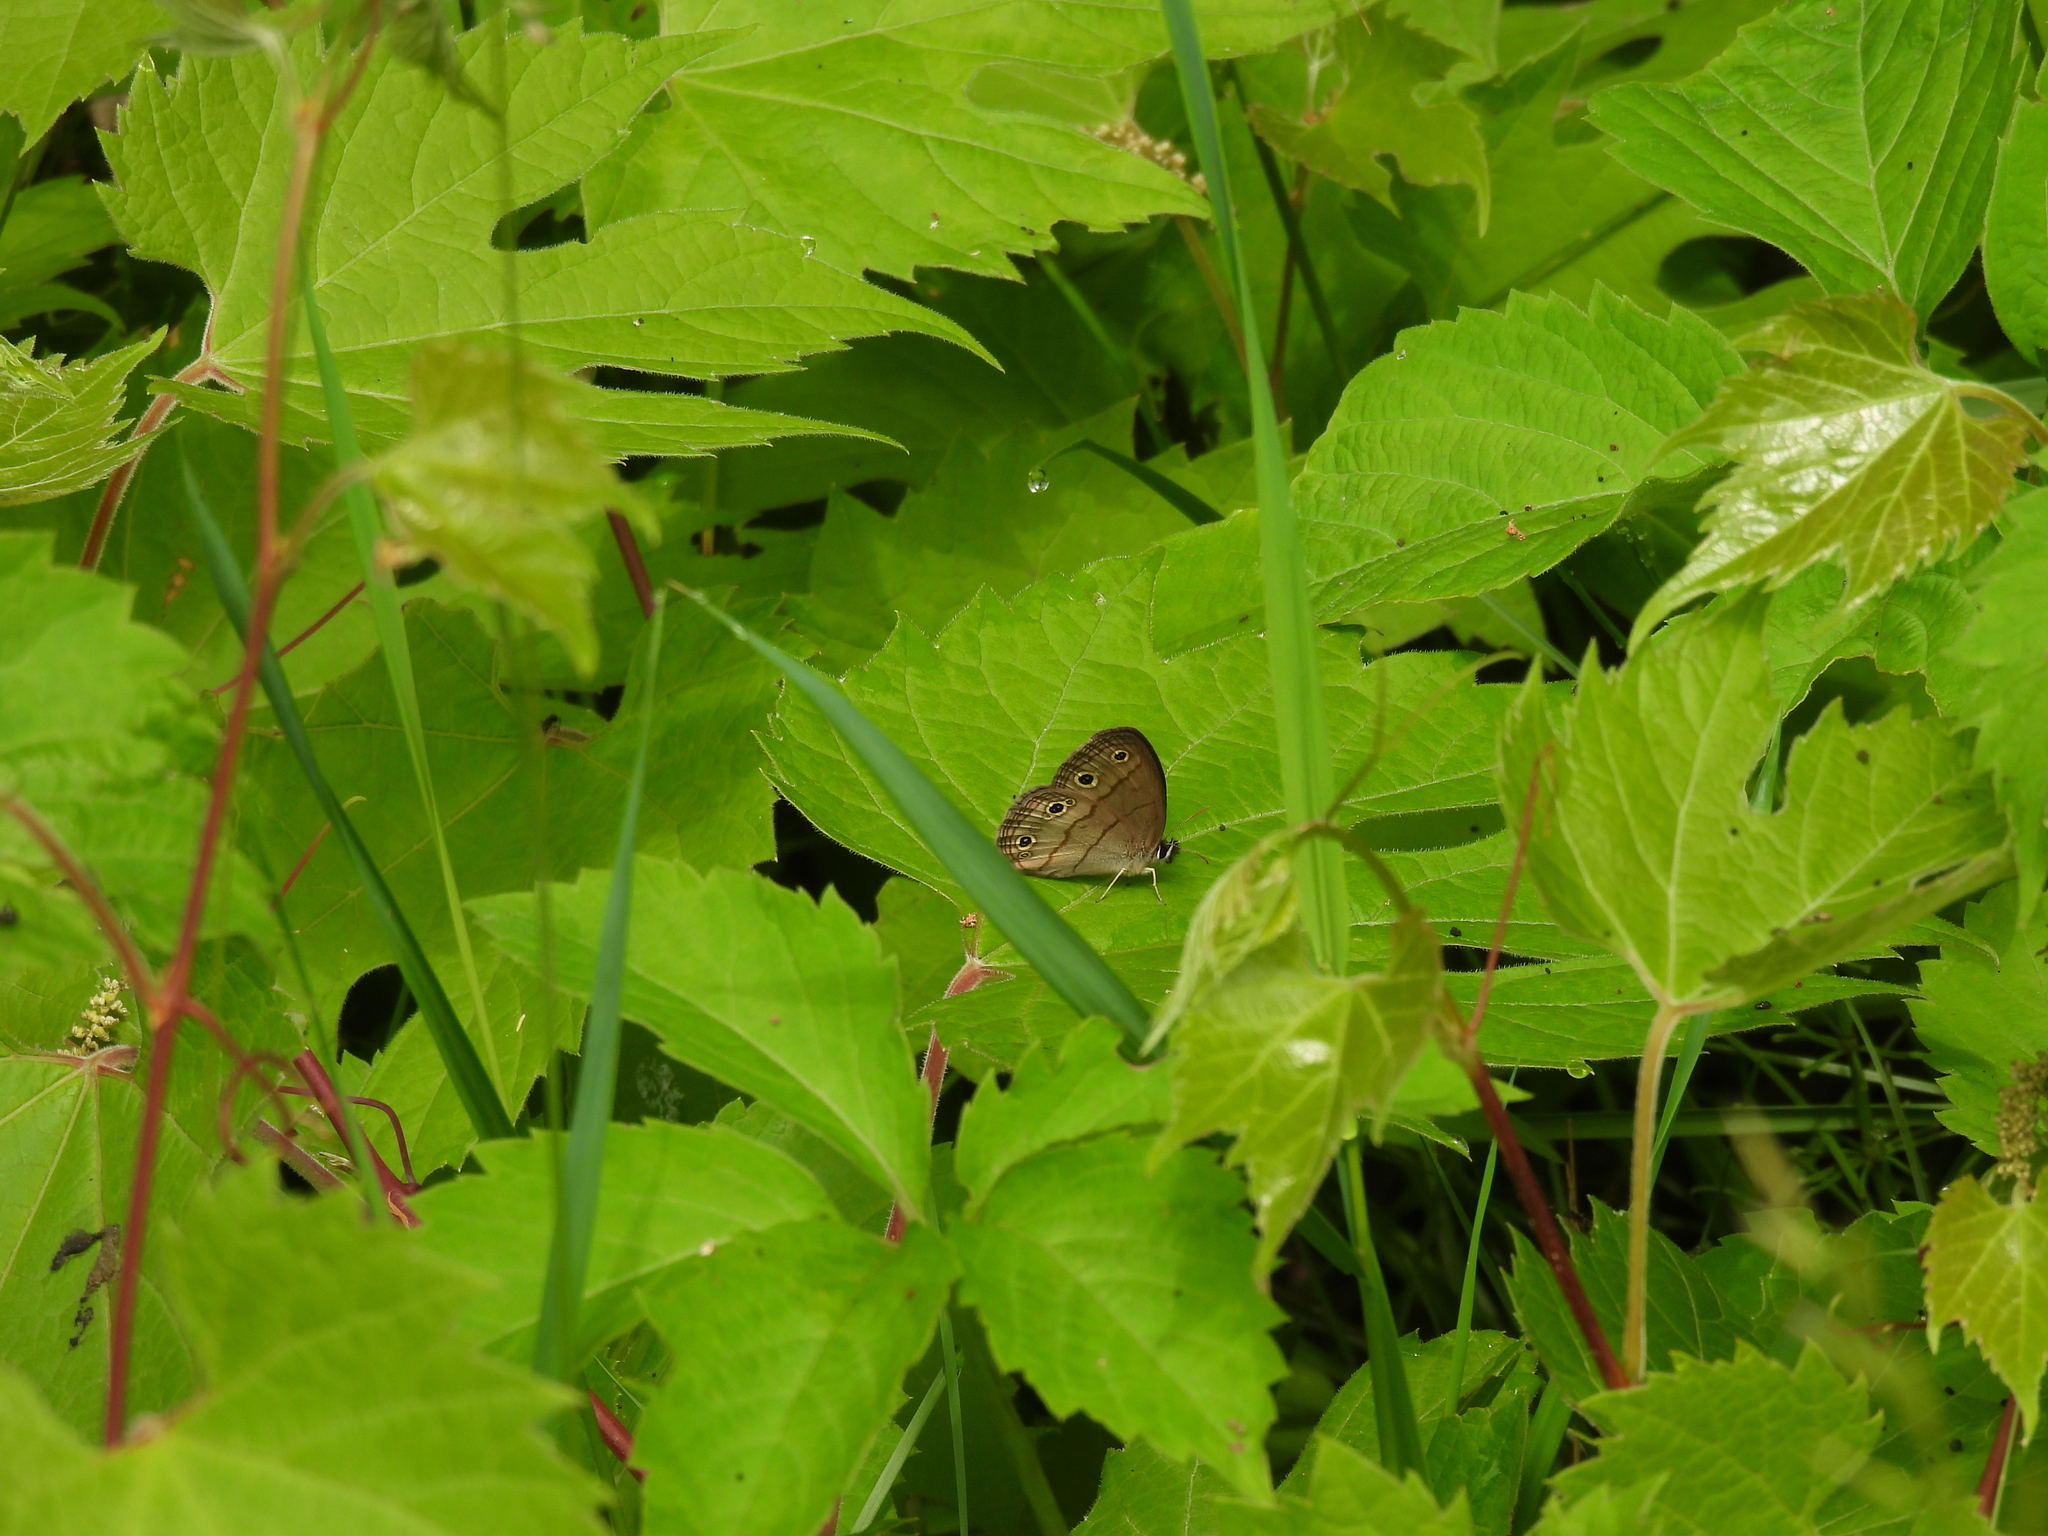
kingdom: Animalia
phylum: Arthropoda
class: Insecta
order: Lepidoptera
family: Nymphalidae
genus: Euptychia
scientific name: Euptychia cymela
